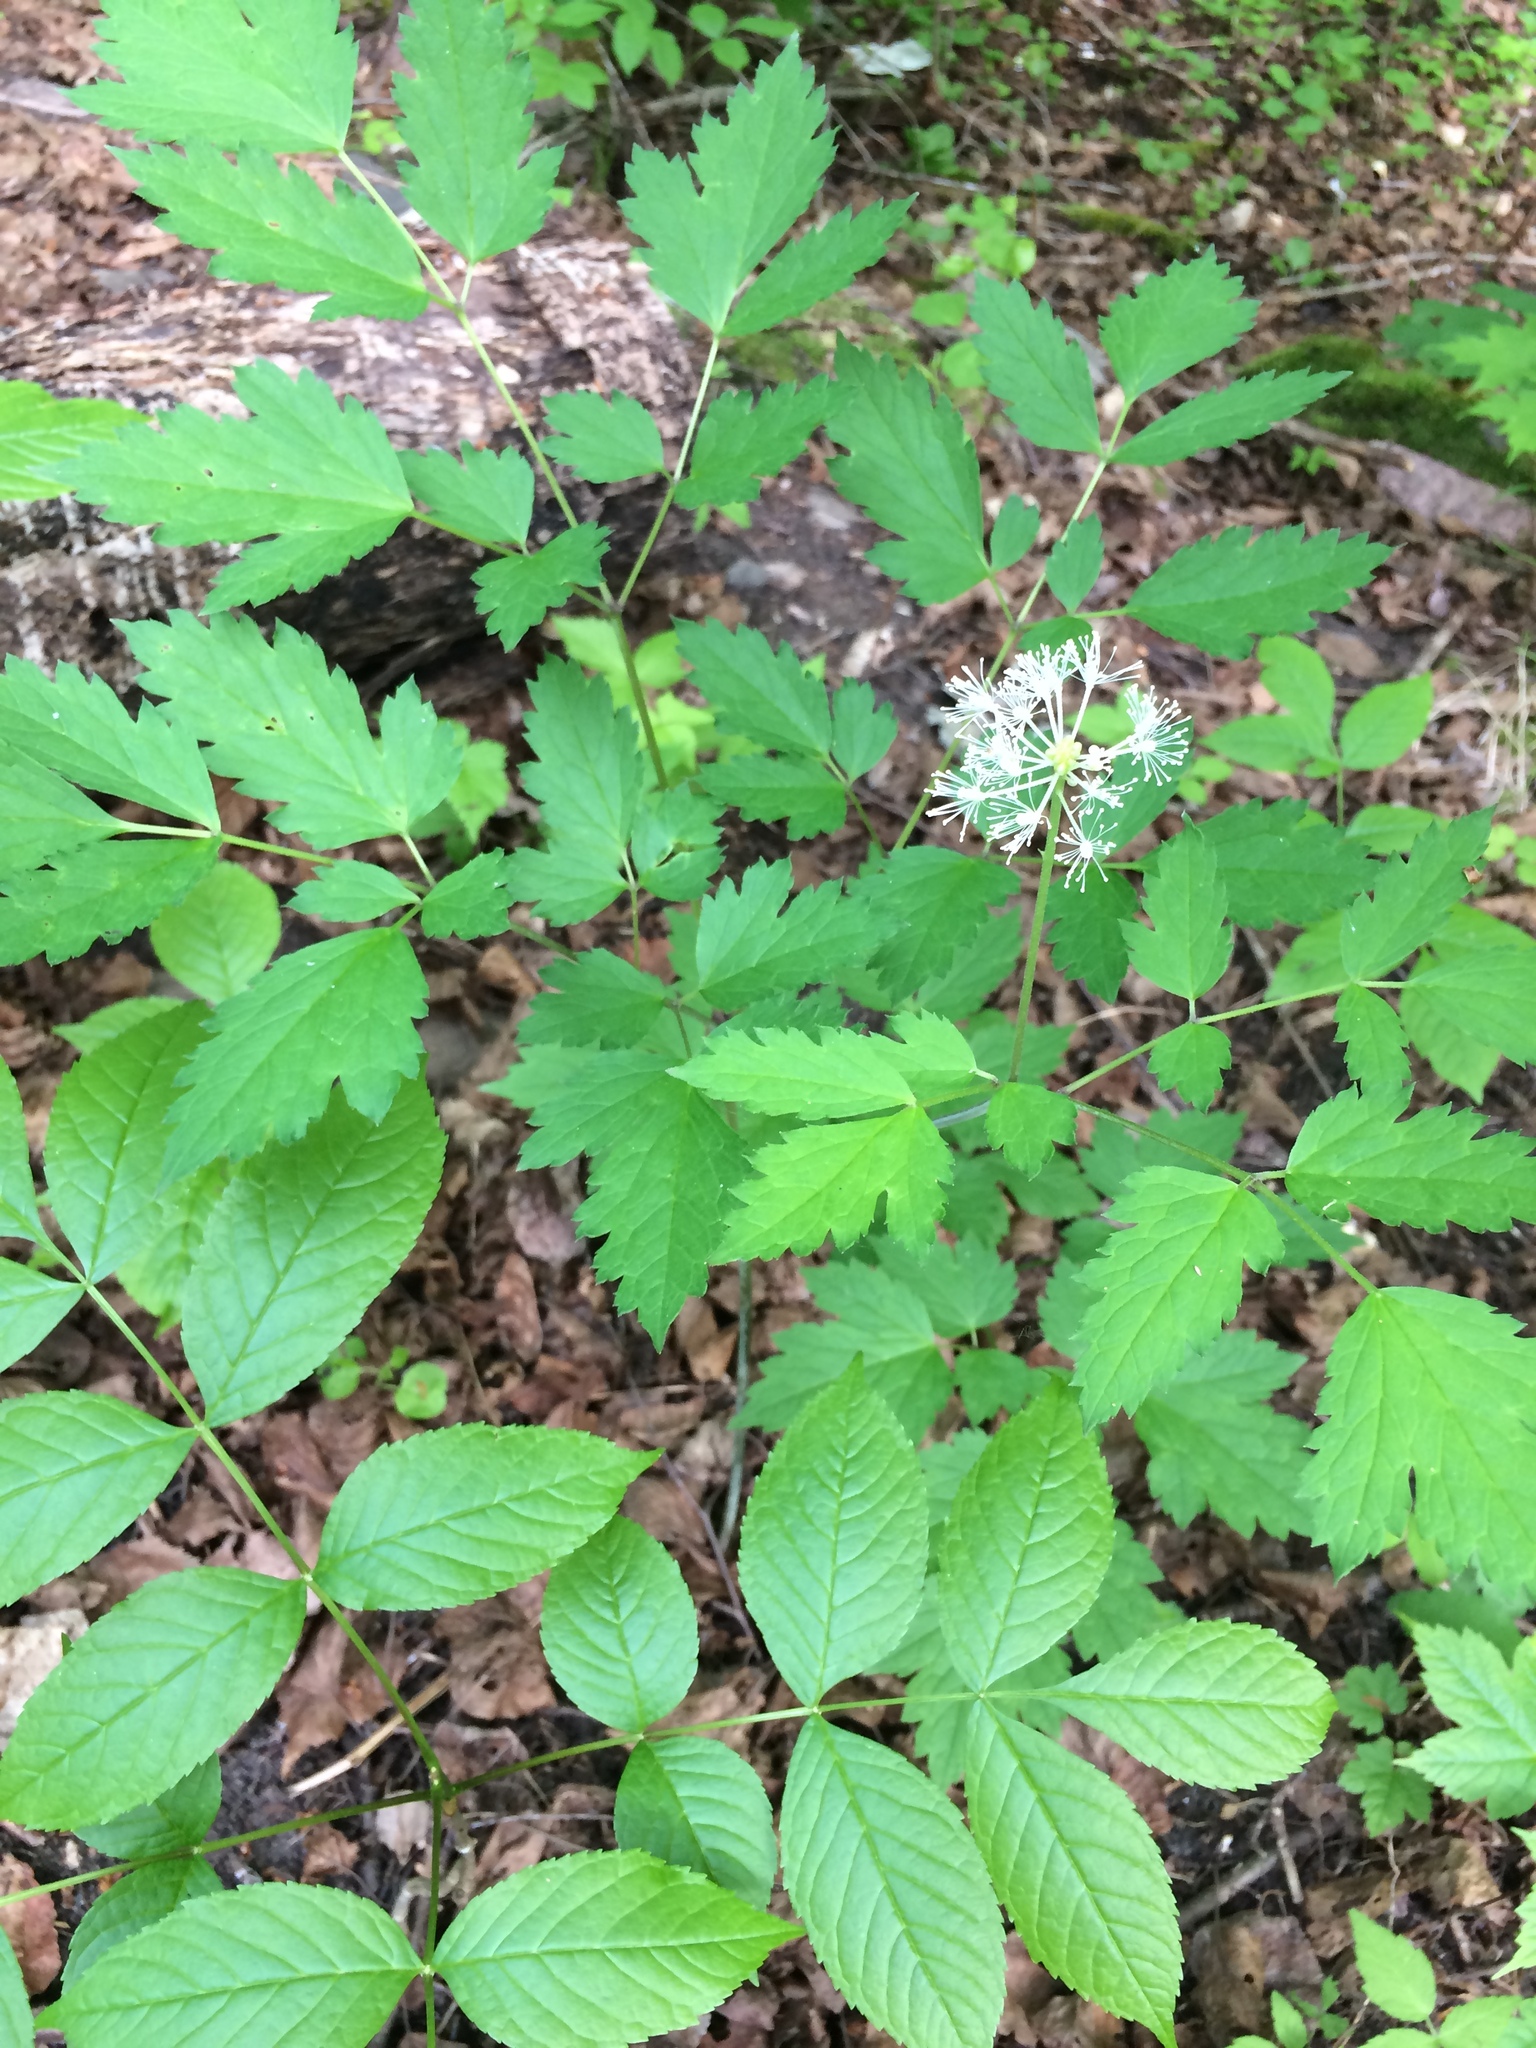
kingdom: Plantae
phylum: Tracheophyta
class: Magnoliopsida
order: Ranunculales
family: Ranunculaceae
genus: Actaea
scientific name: Actaea rubra
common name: Red baneberry
